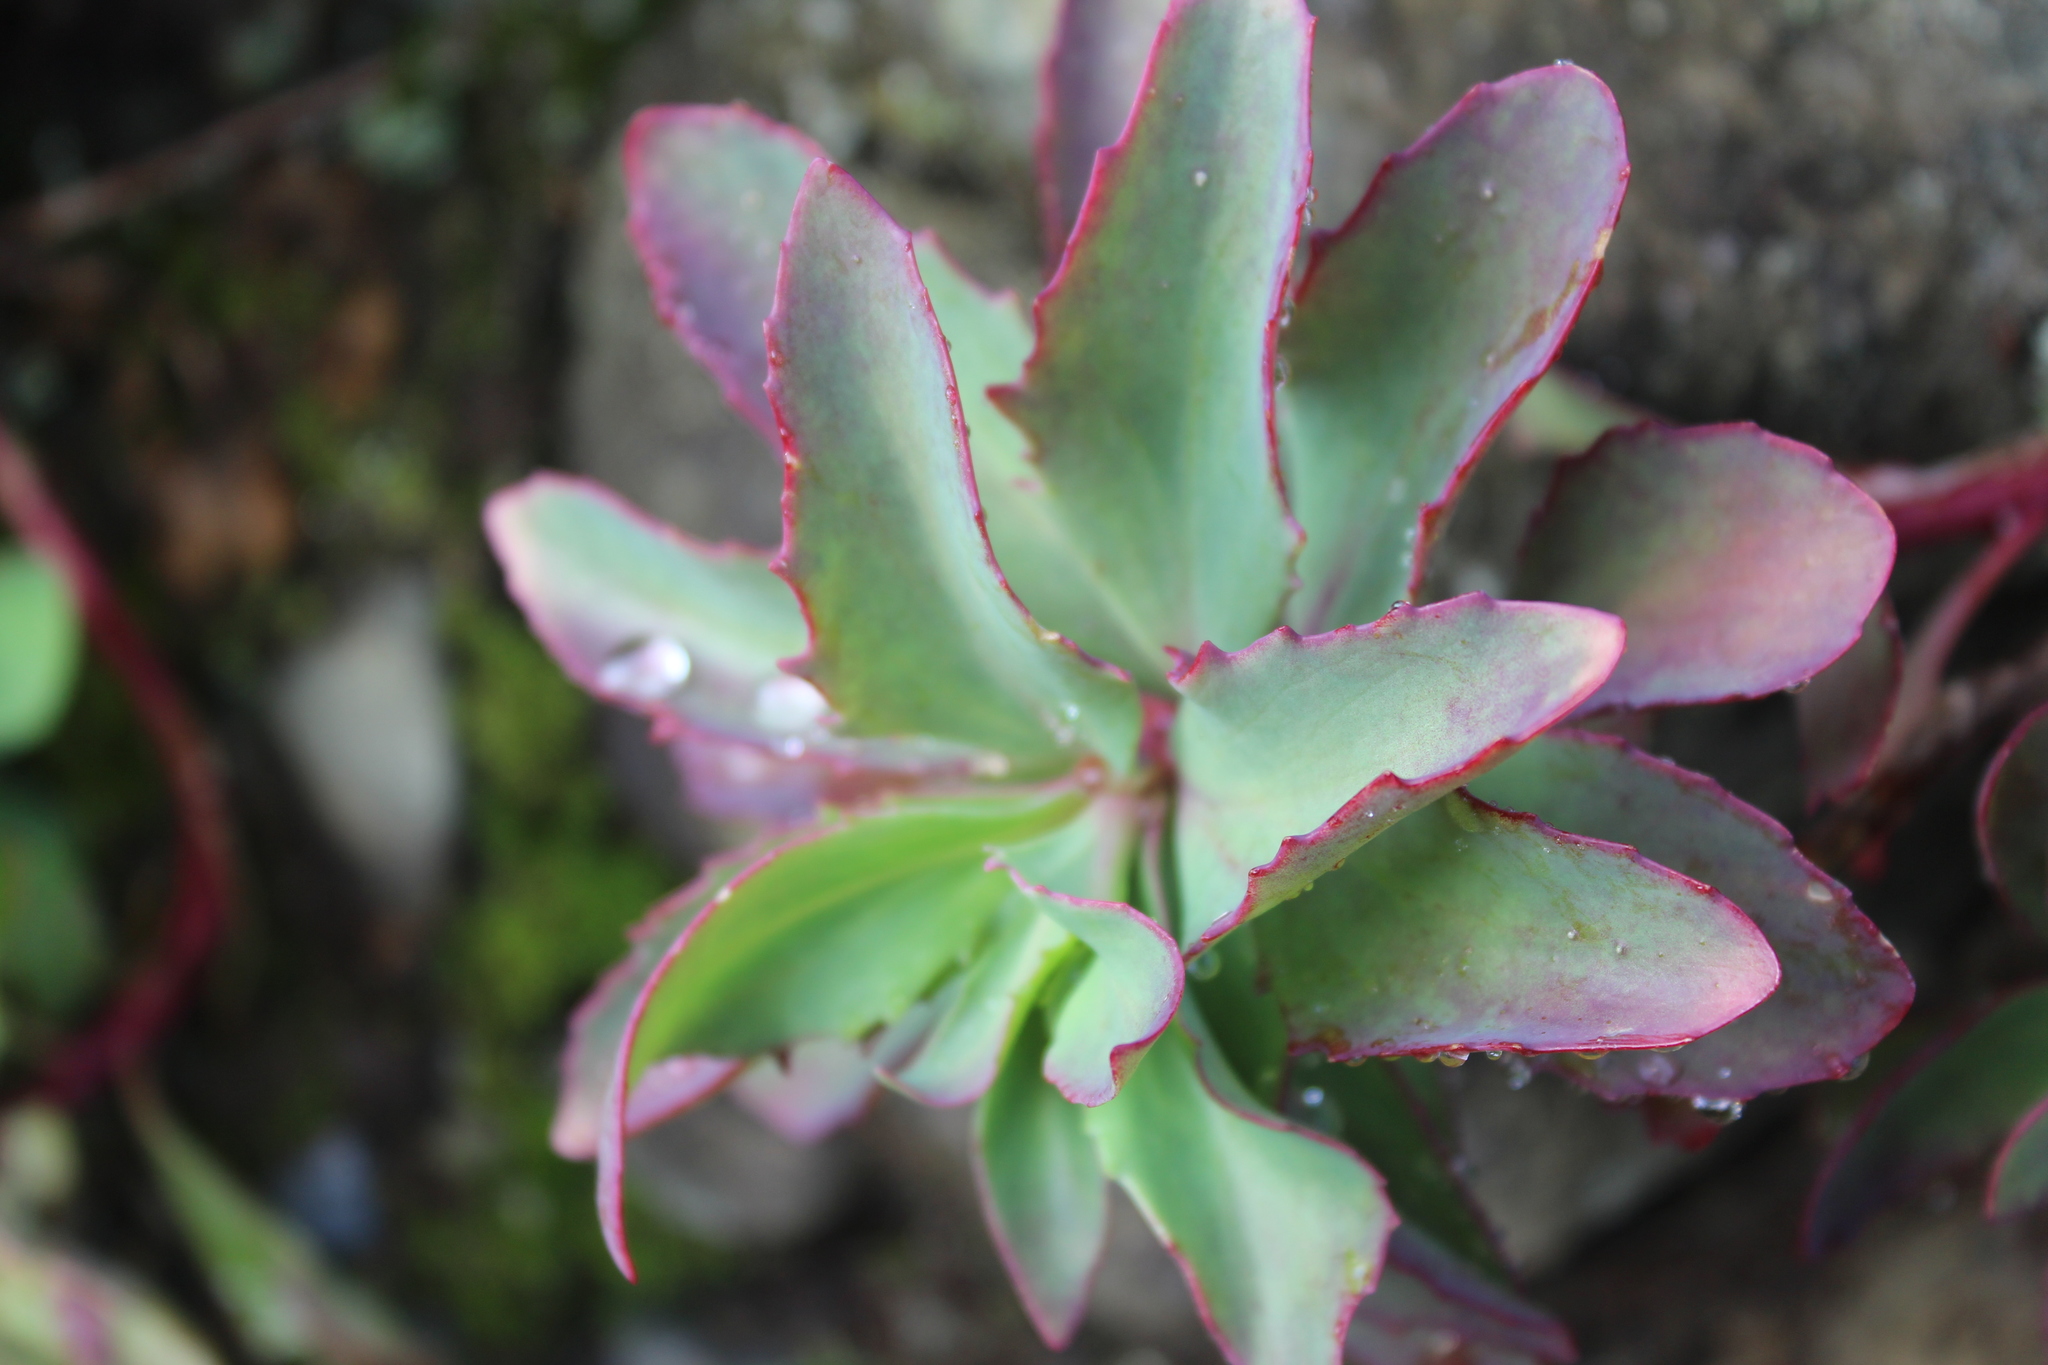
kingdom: Plantae
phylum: Tracheophyta
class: Magnoliopsida
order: Saxifragales
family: Crassulaceae
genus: Hylotelephium
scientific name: Hylotelephium telephioides
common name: Allegheny stonecrop
